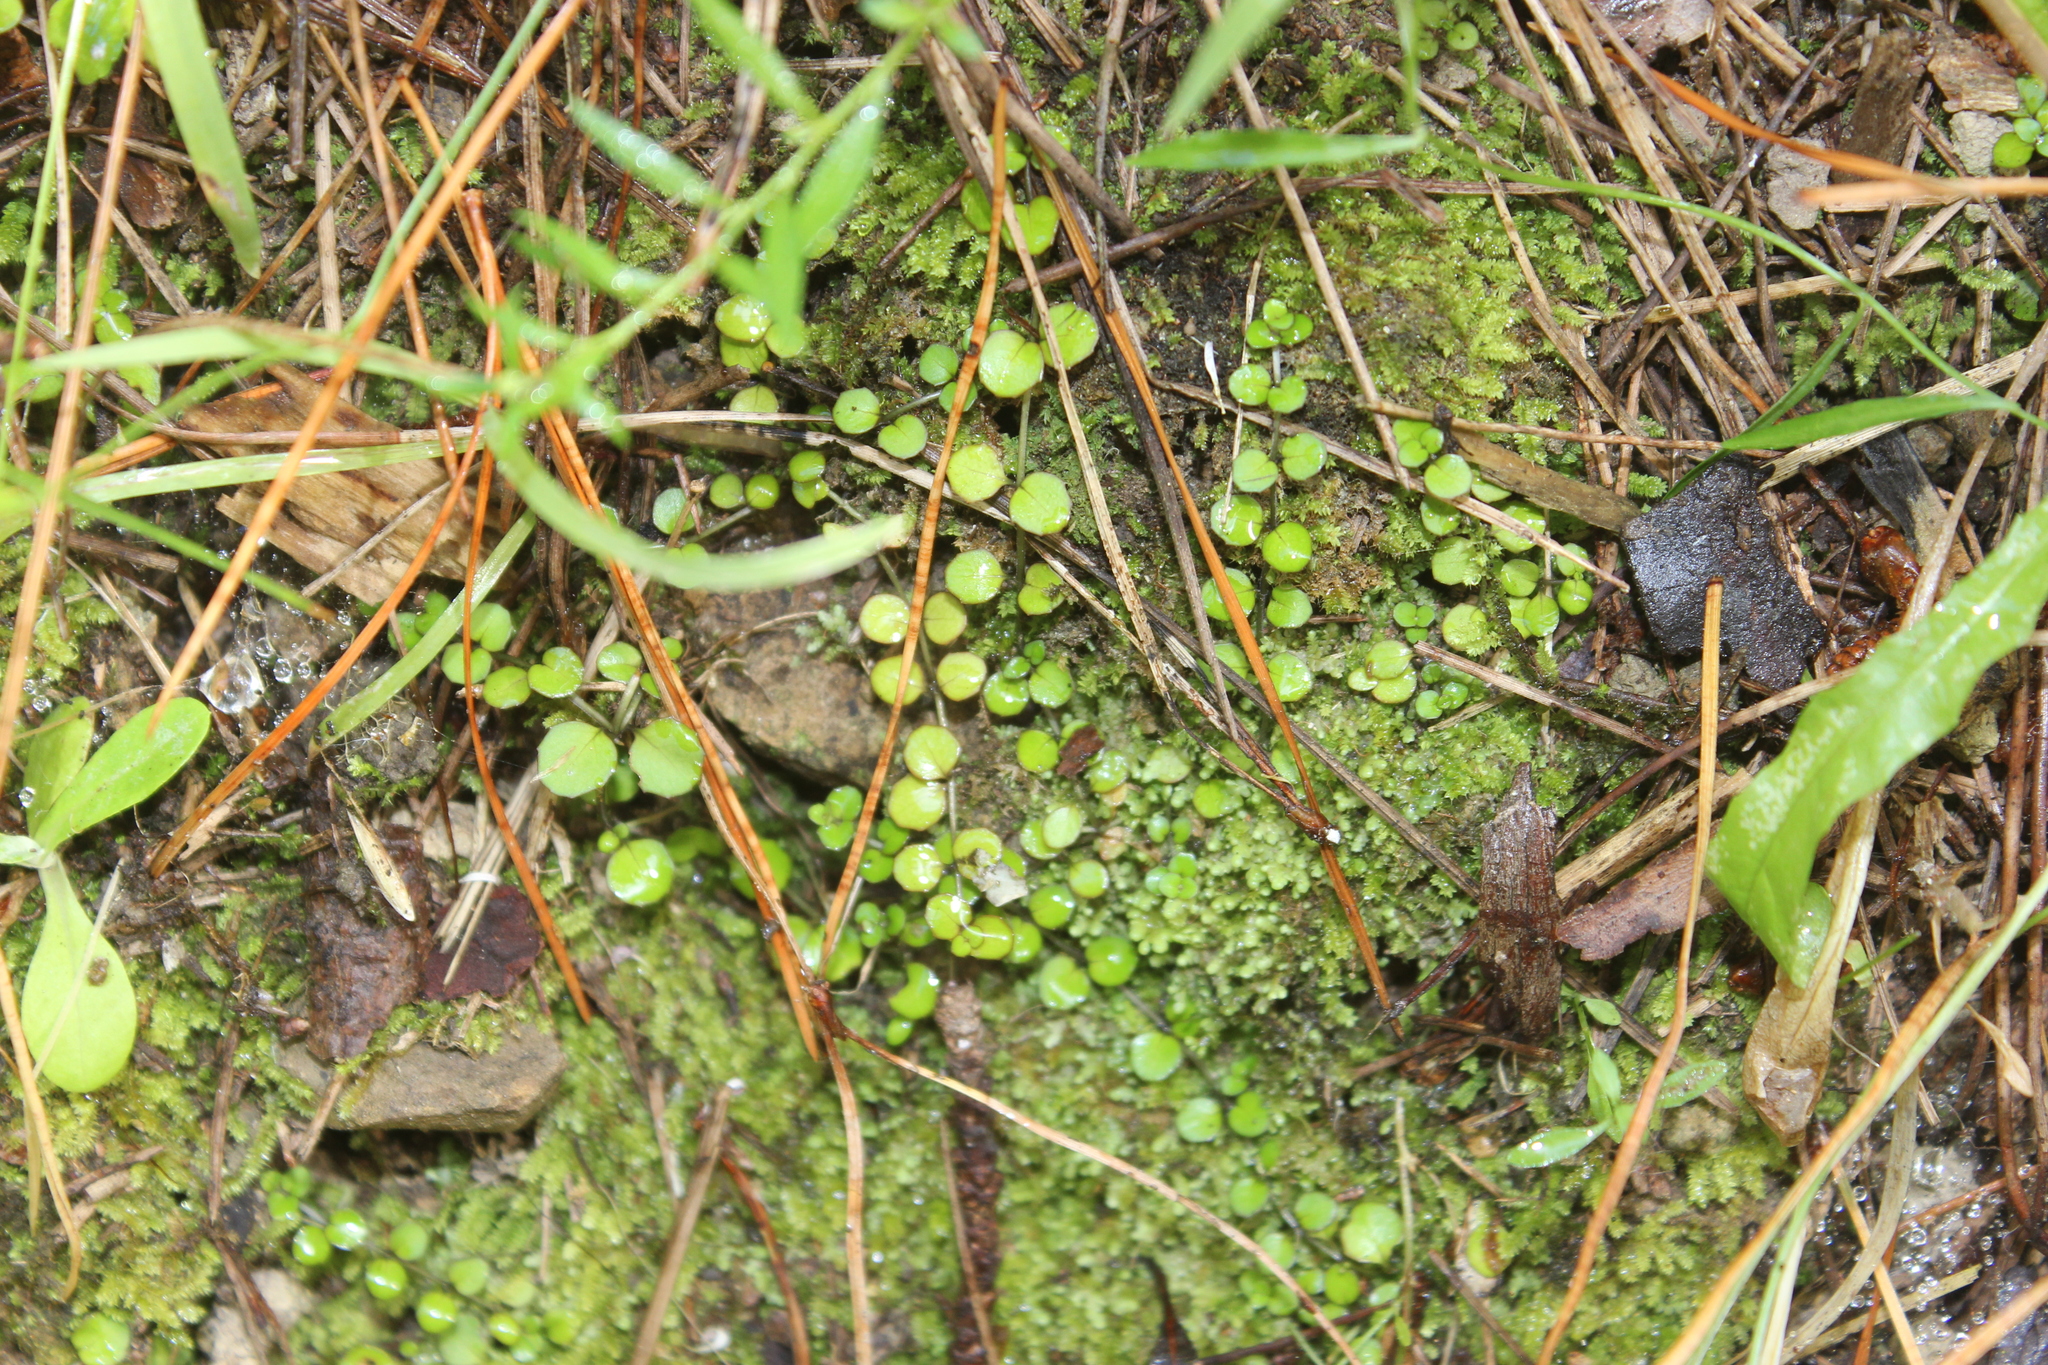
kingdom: Plantae
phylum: Tracheophyta
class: Magnoliopsida
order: Myrtales
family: Onagraceae
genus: Epilobium
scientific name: Epilobium nummularifolium
